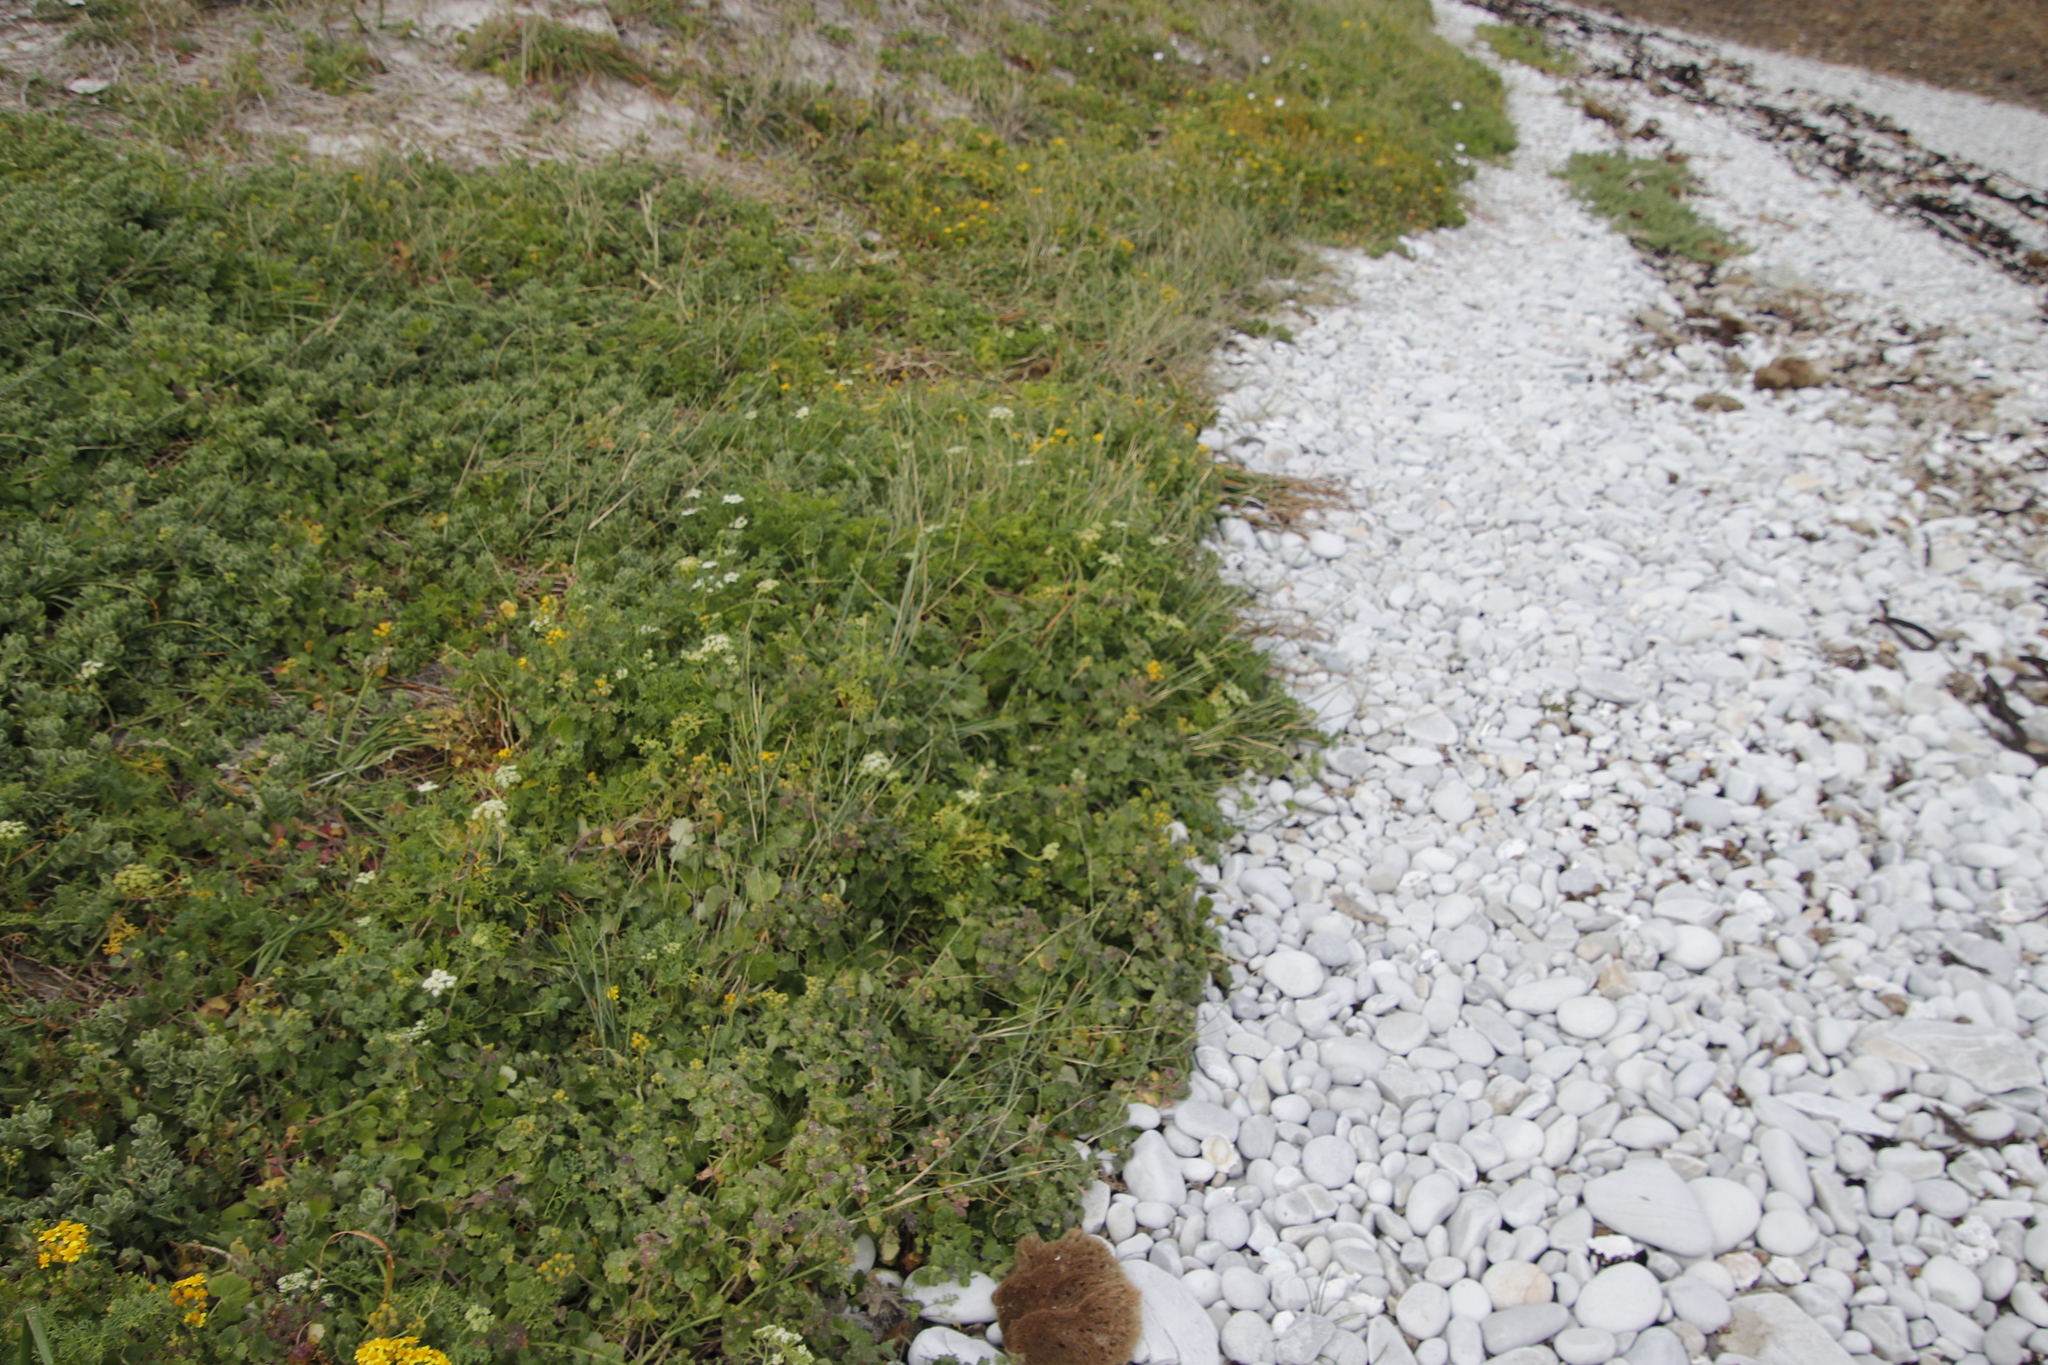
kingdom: Plantae
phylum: Tracheophyta
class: Magnoliopsida
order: Apiales
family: Apiaceae
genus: Dasispermum
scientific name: Dasispermum suffruticosum
